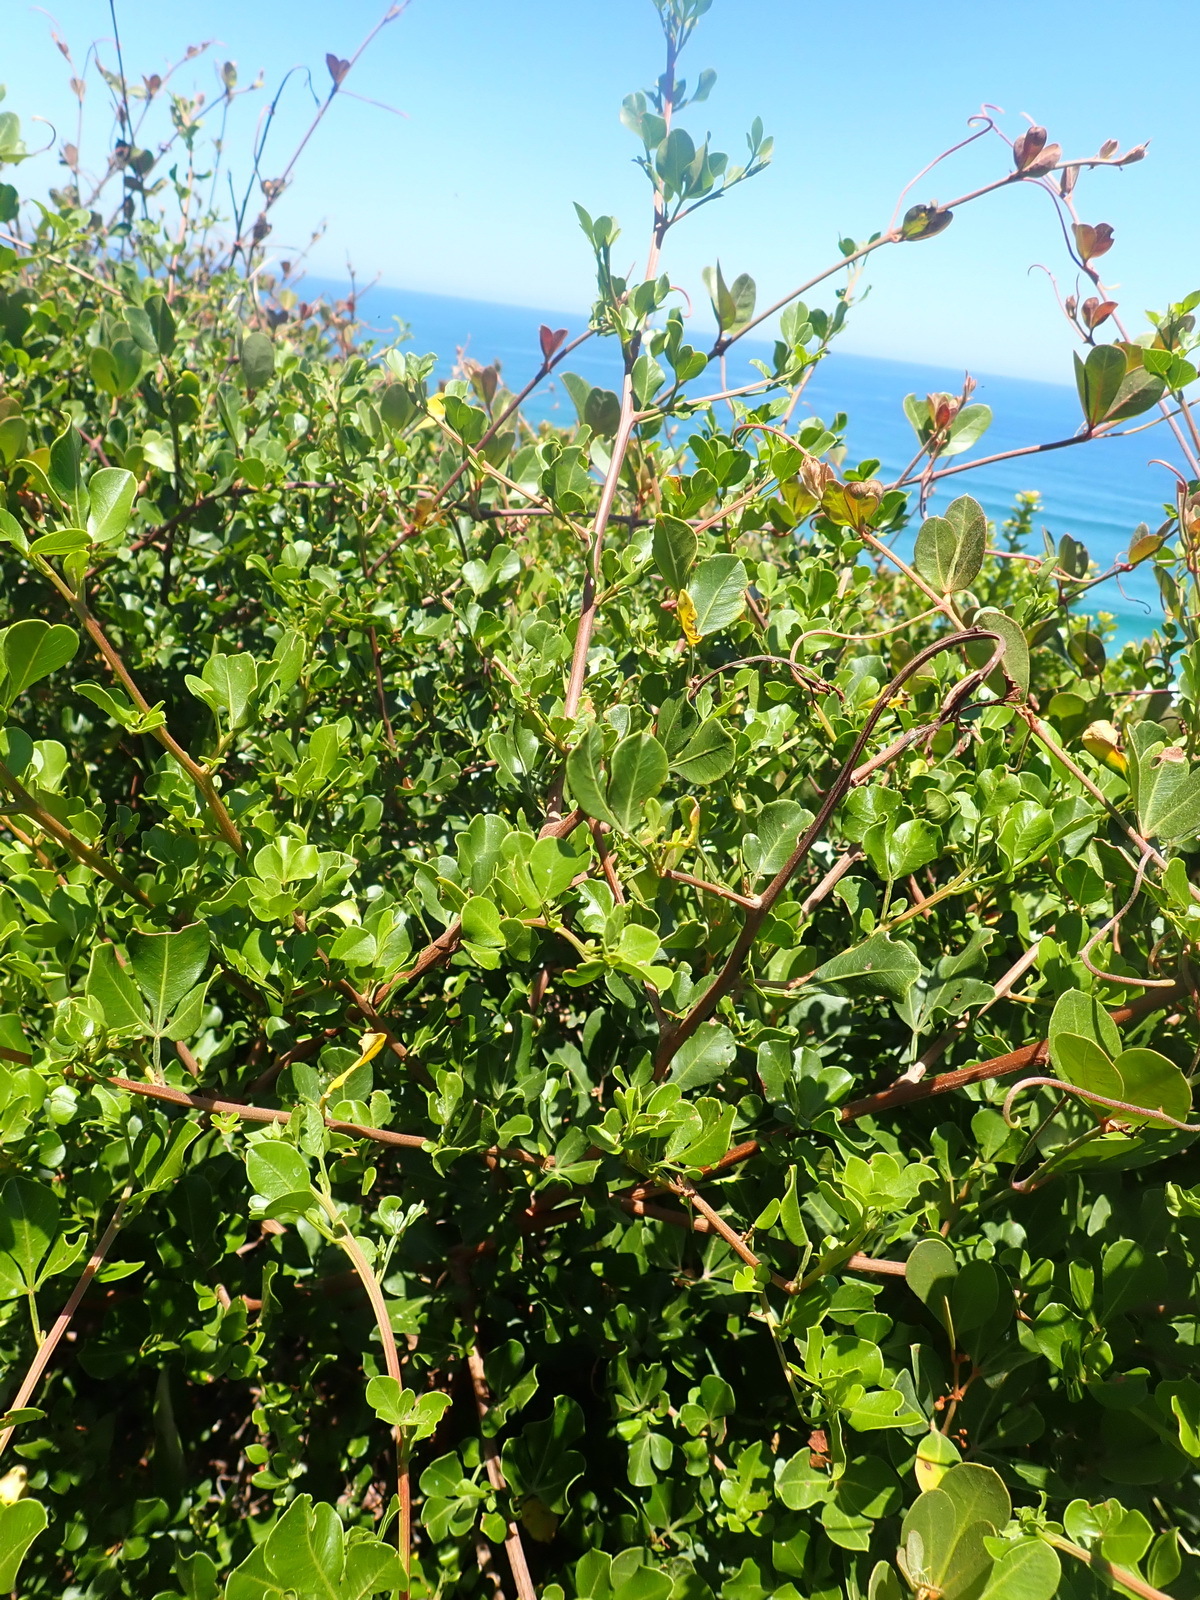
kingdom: Plantae
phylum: Tracheophyta
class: Magnoliopsida
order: Vitales
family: Vitaceae
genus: Rhoicissus
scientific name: Rhoicissus digitata
